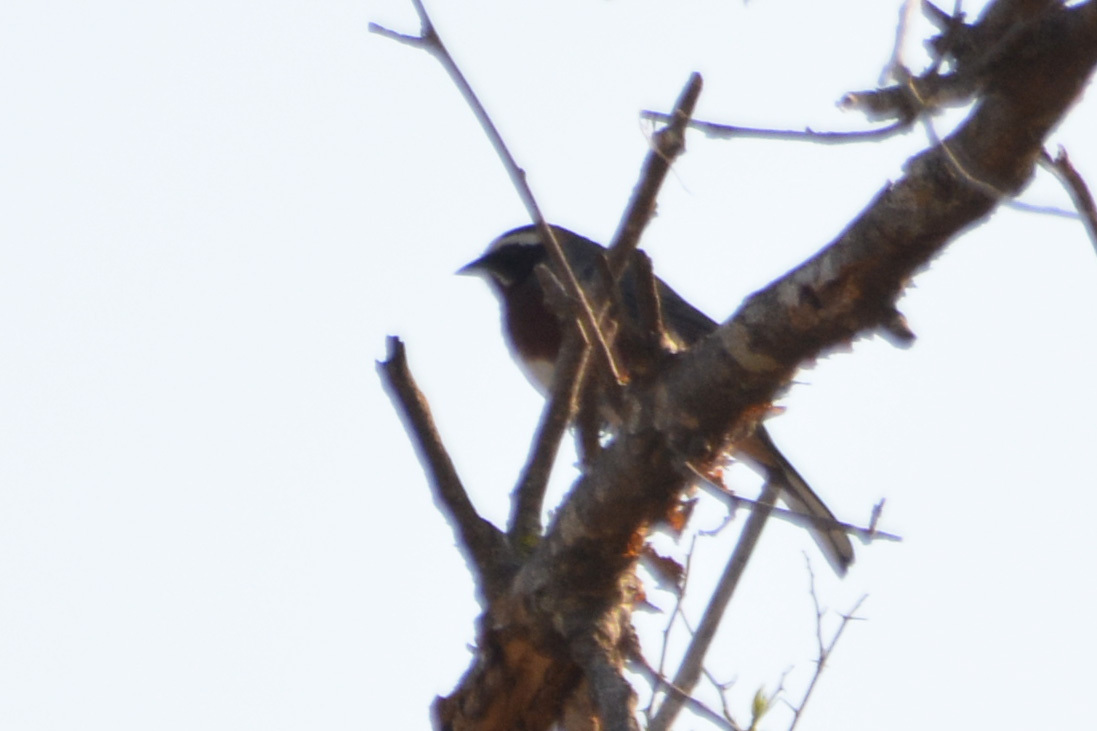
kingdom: Animalia
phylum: Chordata
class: Aves
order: Passeriformes
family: Thraupidae
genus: Poospiza
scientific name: Poospiza whitii
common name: Black-and-chestnut warbling finch
